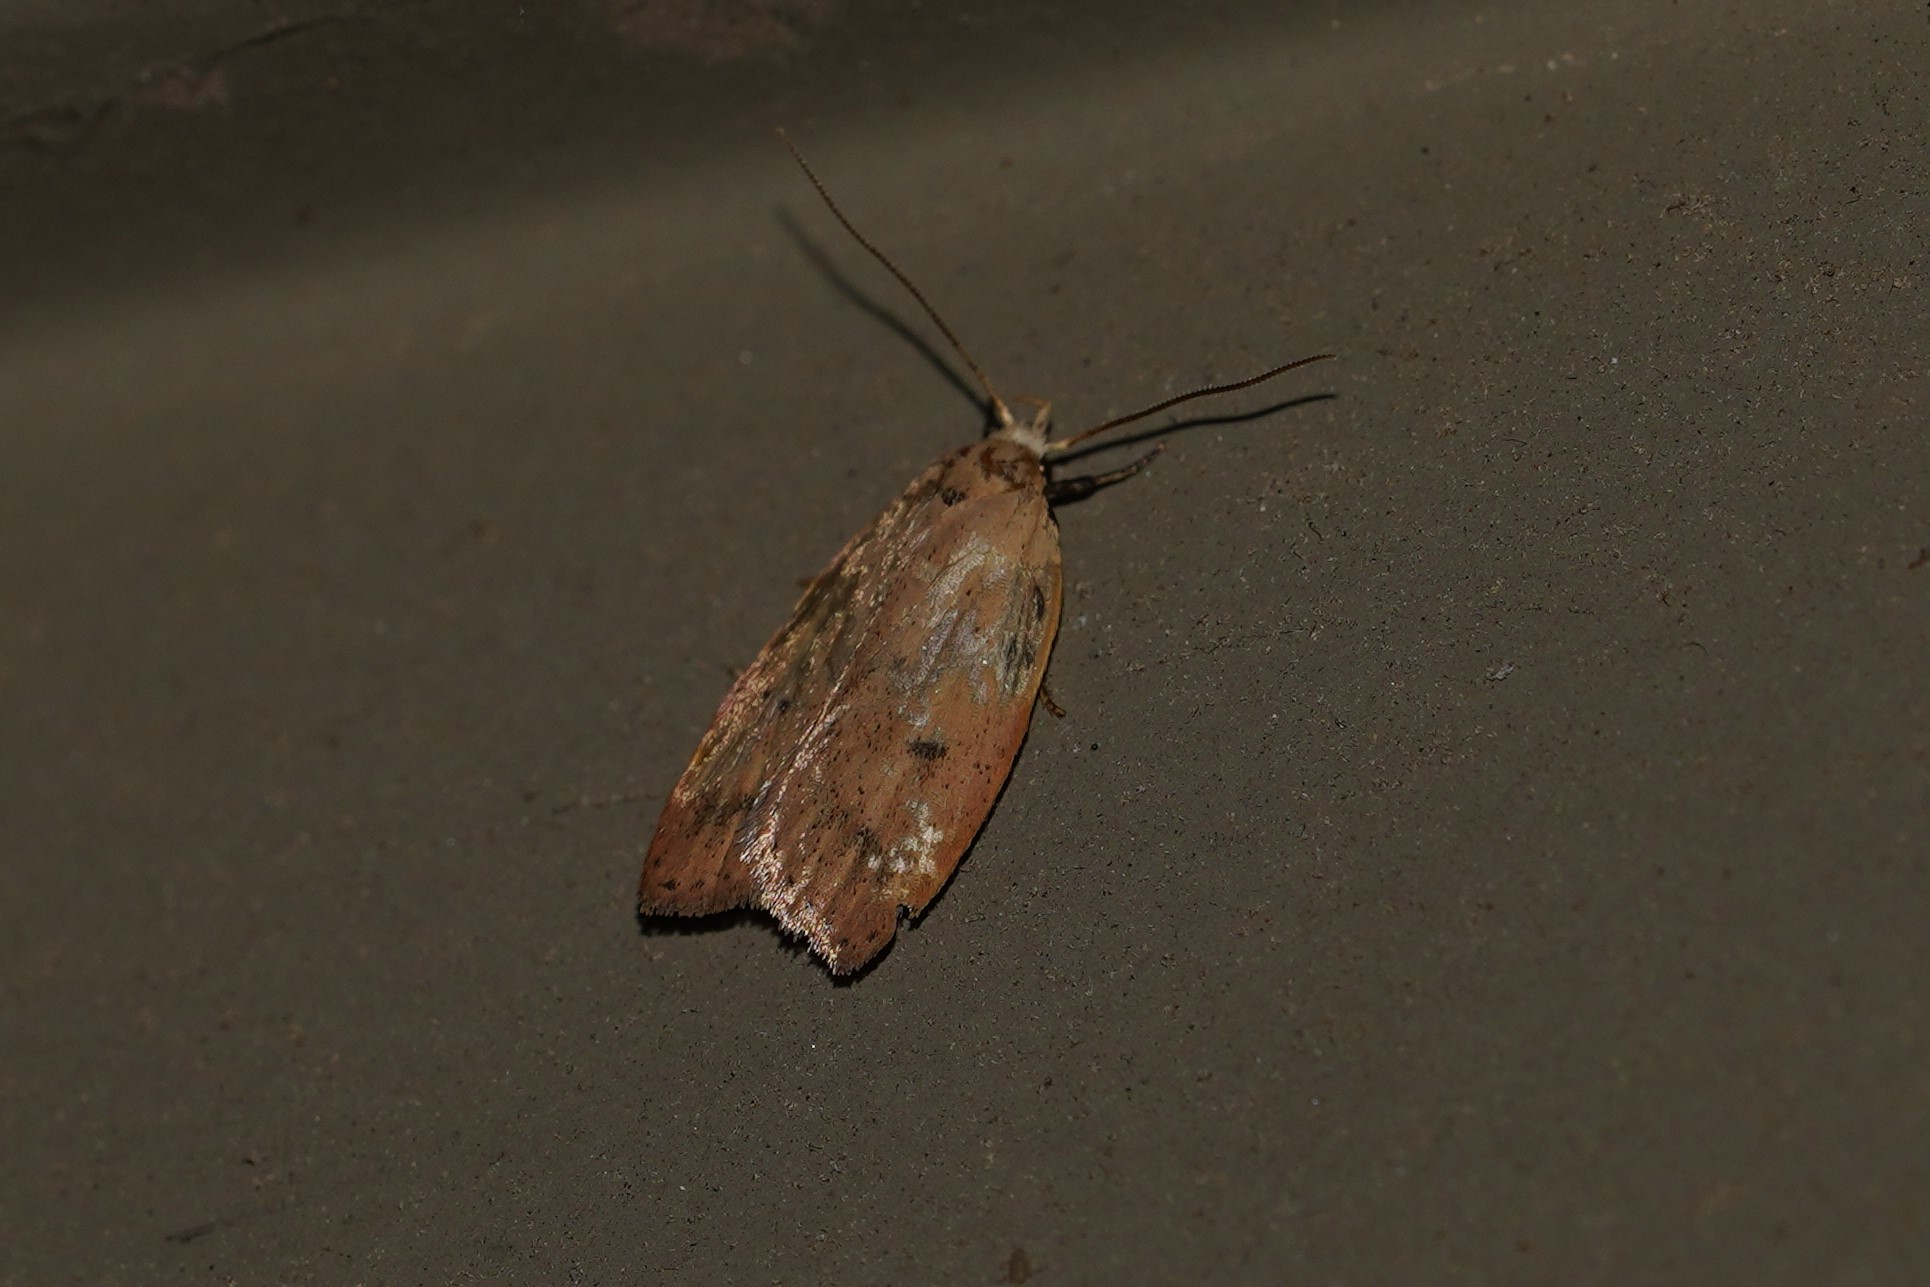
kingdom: Animalia
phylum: Arthropoda
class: Insecta
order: Lepidoptera
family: Peleopodidae
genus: Machimia
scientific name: Machimia tentoriferella
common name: Gold-striped leaftier moth
